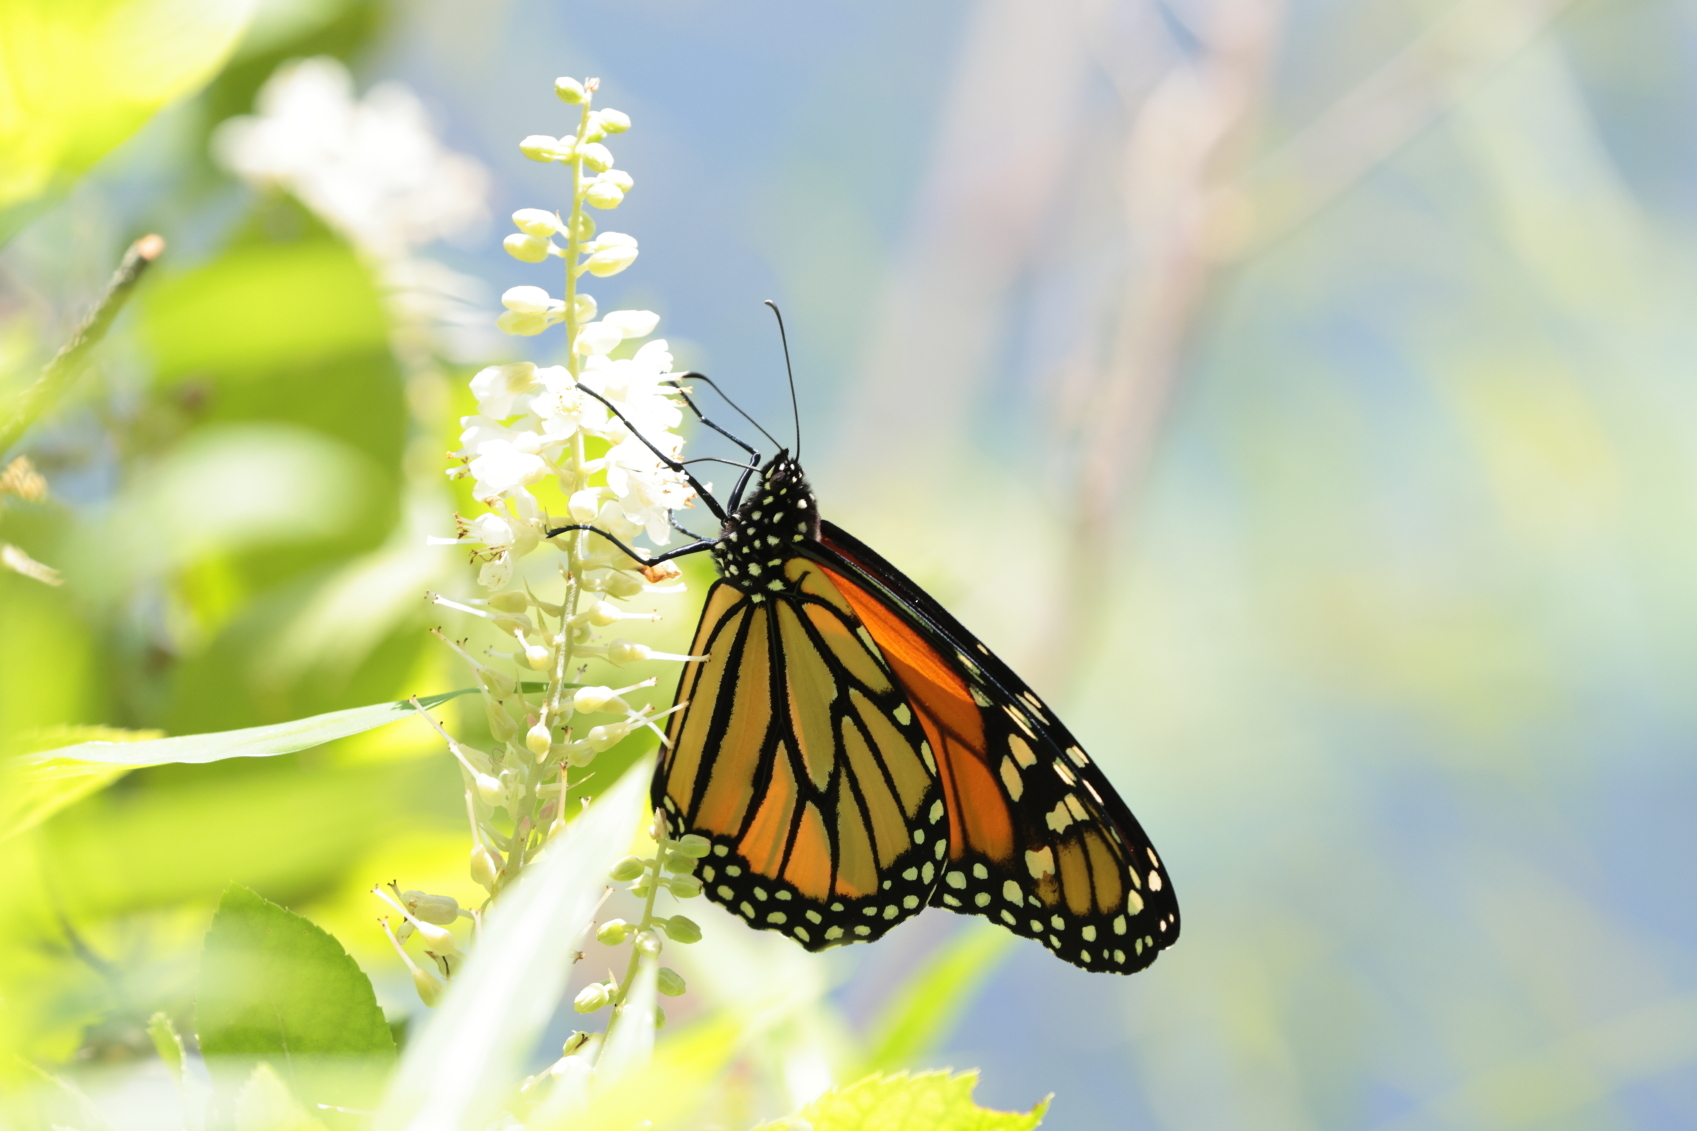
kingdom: Animalia
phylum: Arthropoda
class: Insecta
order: Lepidoptera
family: Nymphalidae
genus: Danaus
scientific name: Danaus plexippus
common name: Monarch
